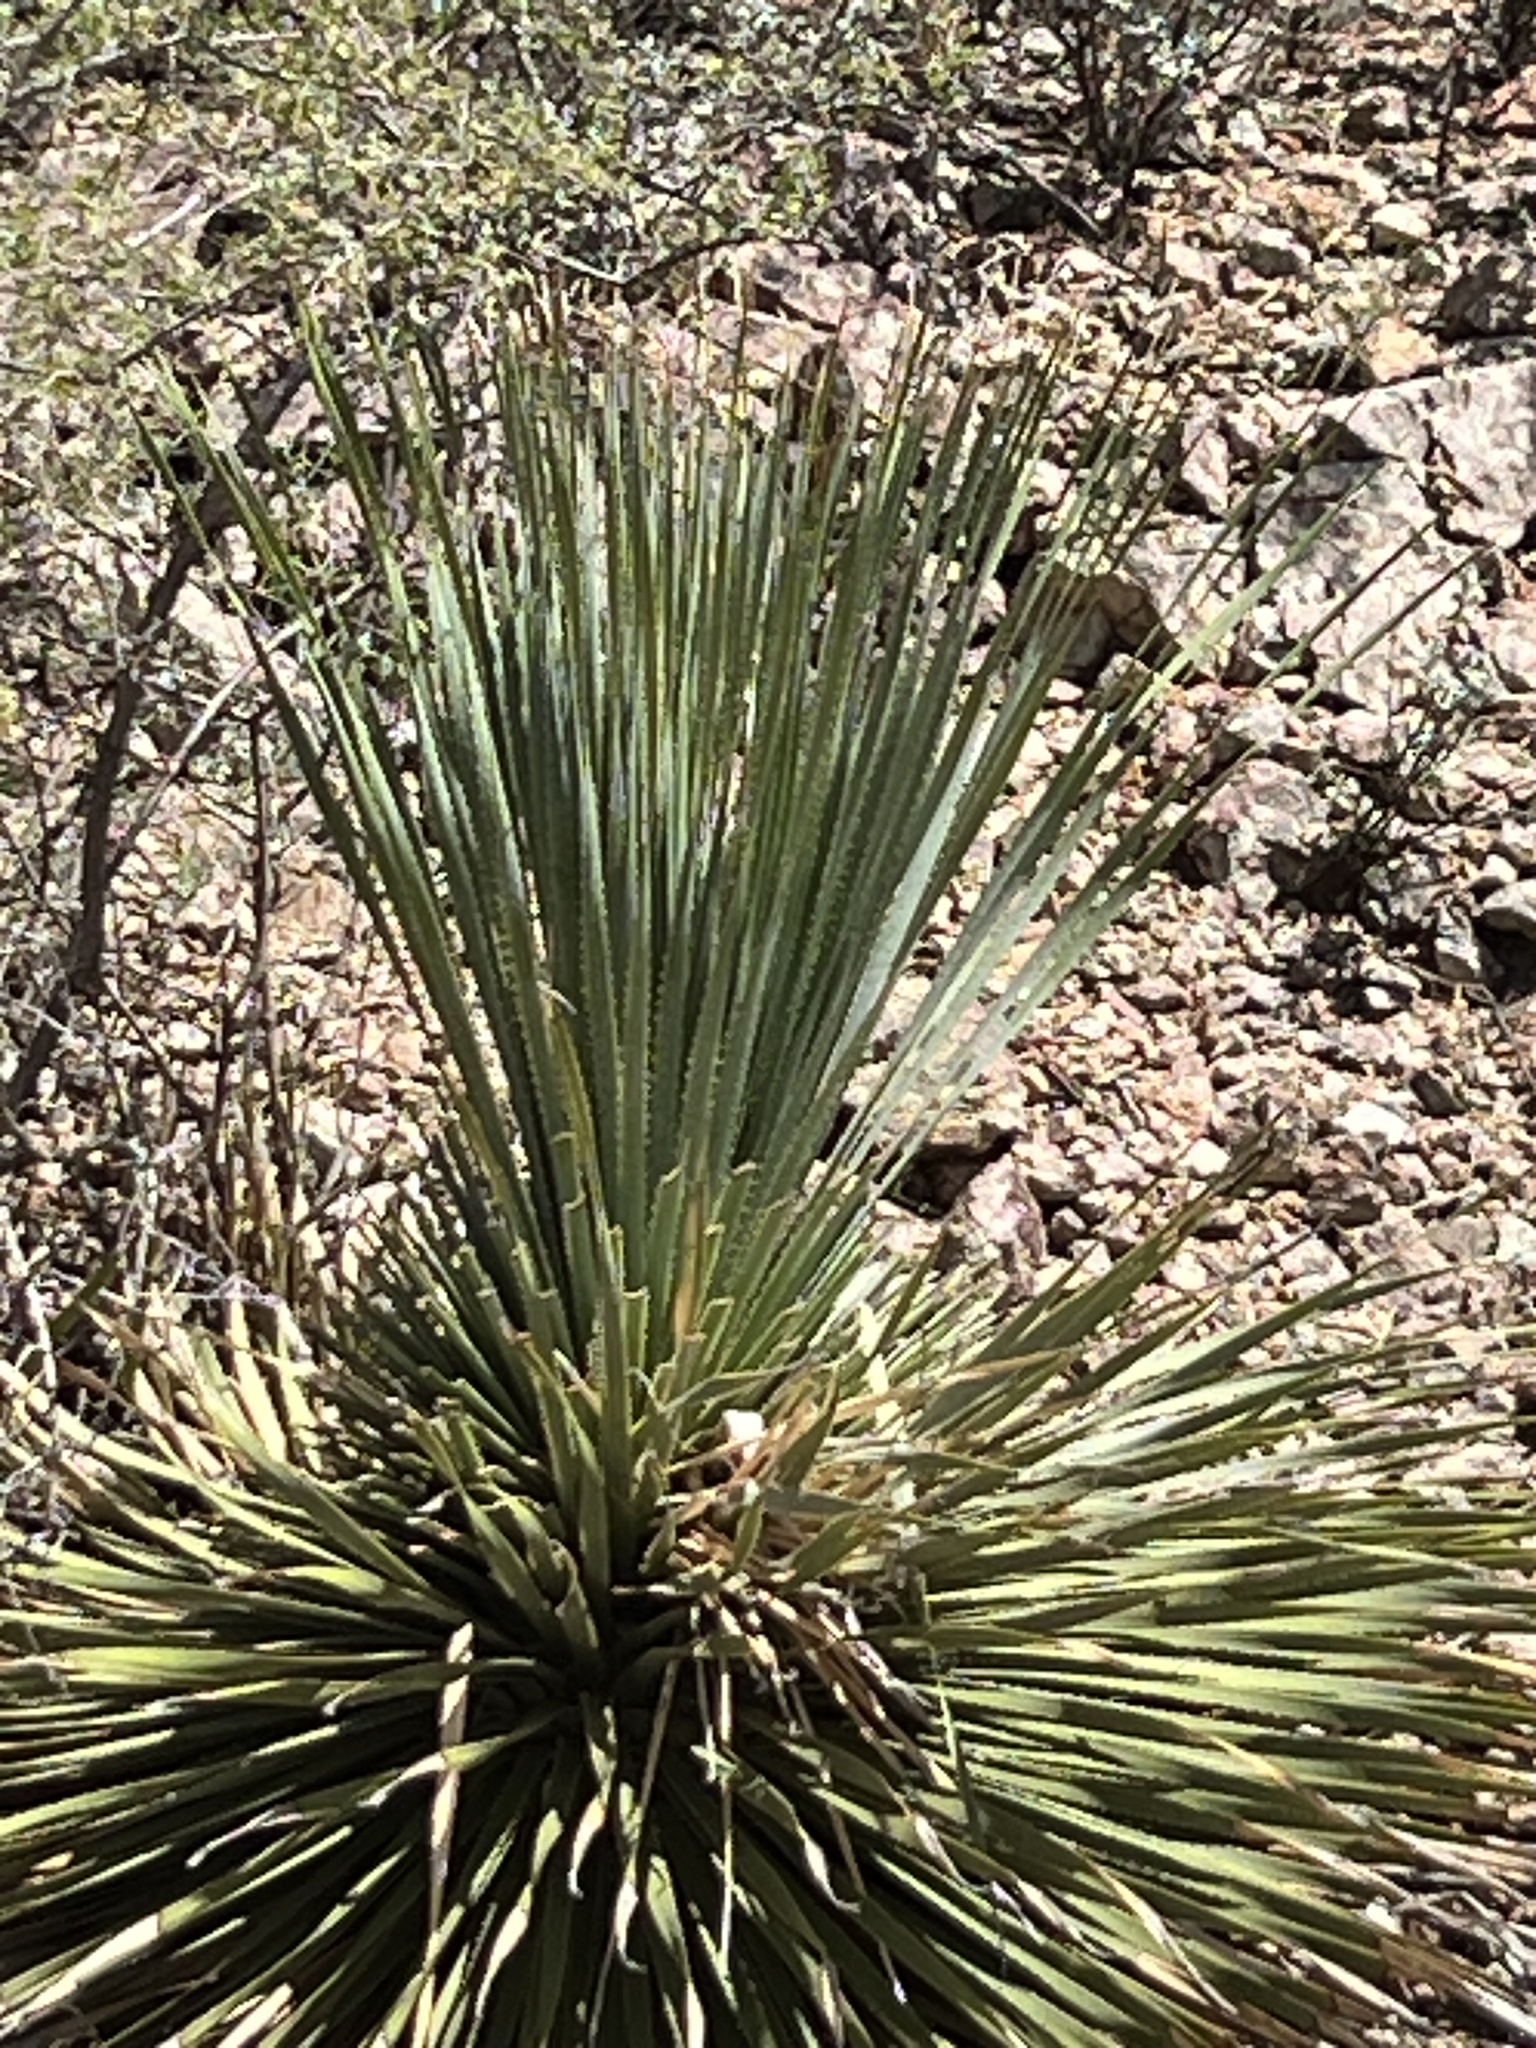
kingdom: Plantae
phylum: Tracheophyta
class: Liliopsida
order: Asparagales
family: Asparagaceae
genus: Dasylirion
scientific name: Dasylirion wheeleri
